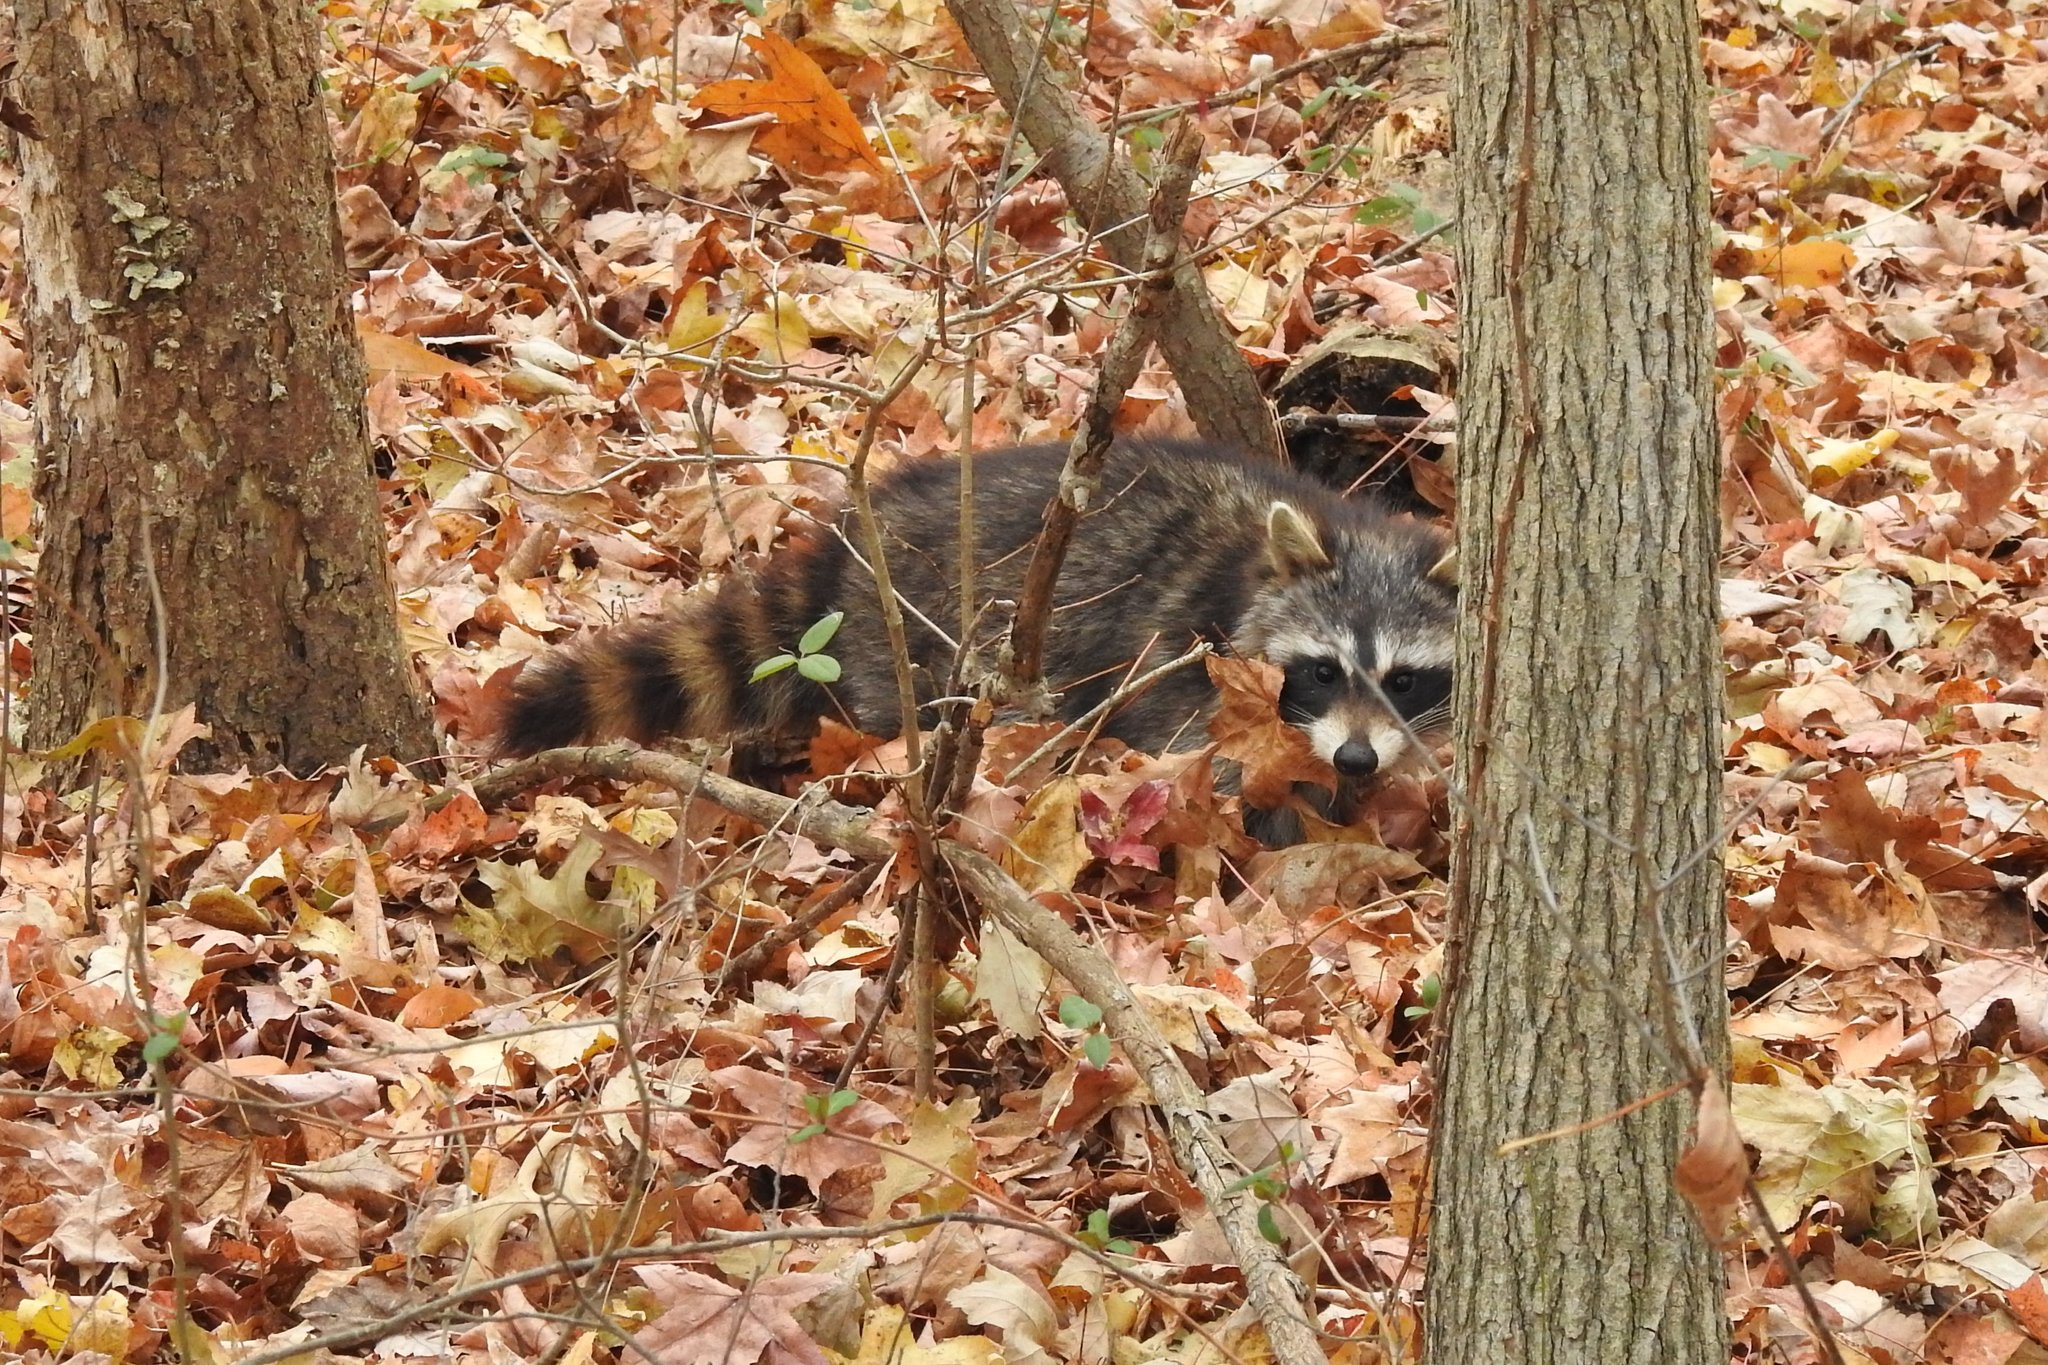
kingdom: Animalia
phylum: Chordata
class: Mammalia
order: Carnivora
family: Procyonidae
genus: Procyon
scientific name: Procyon lotor
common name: Raccoon
